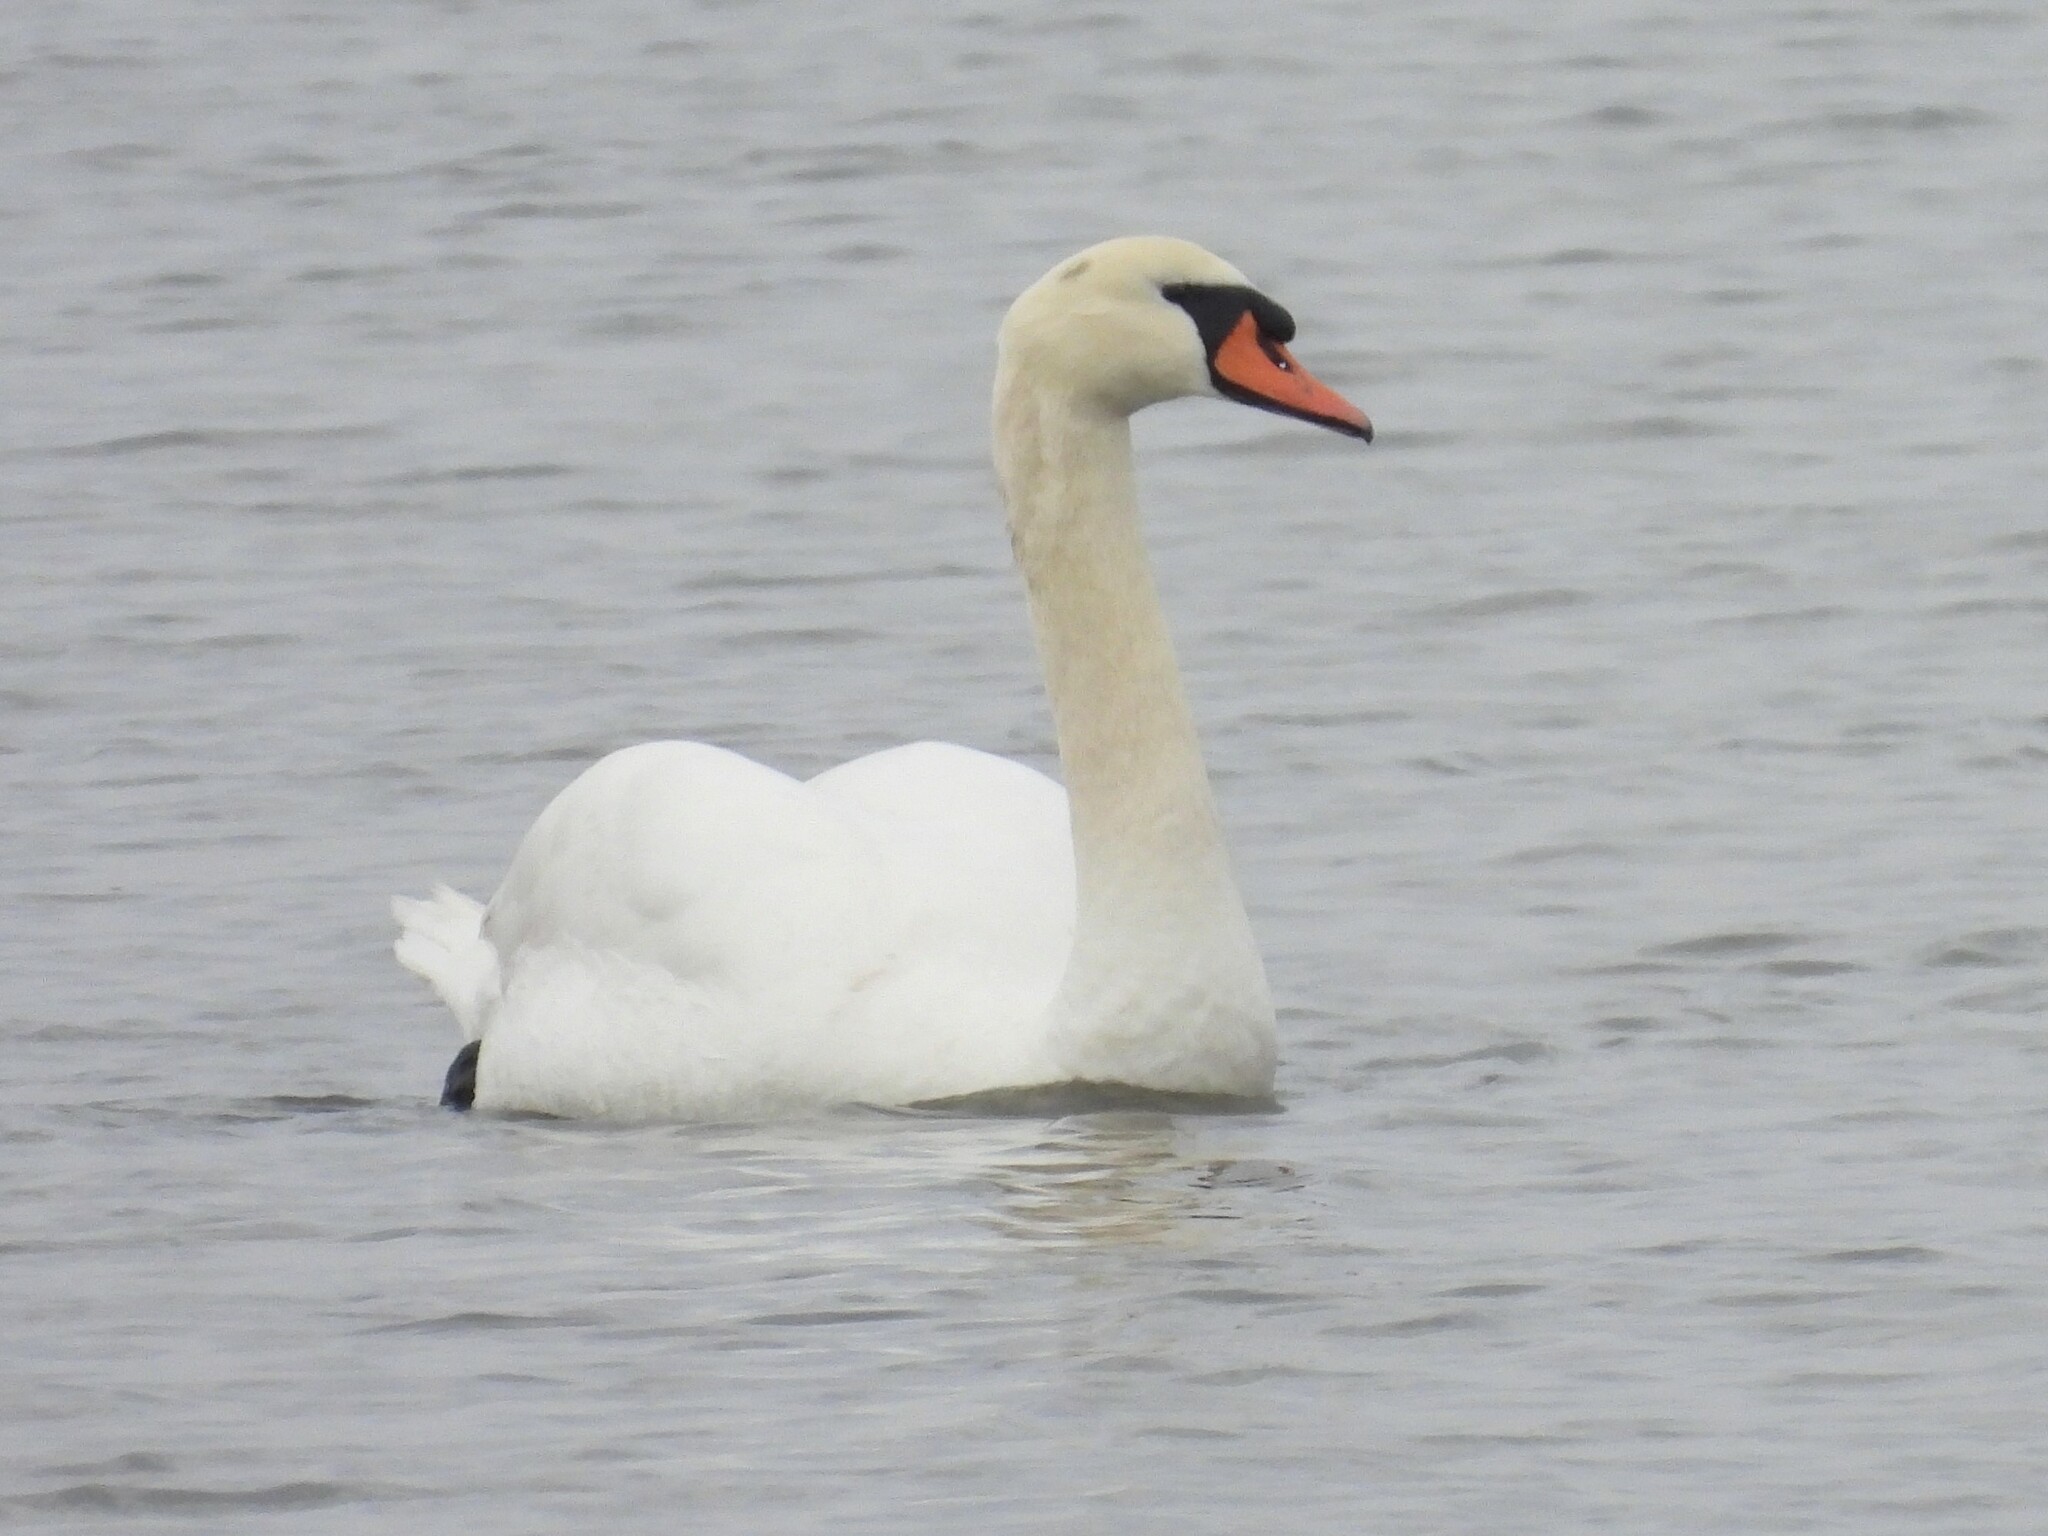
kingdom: Animalia
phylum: Chordata
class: Aves
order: Anseriformes
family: Anatidae
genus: Cygnus
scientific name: Cygnus olor
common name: Mute swan
